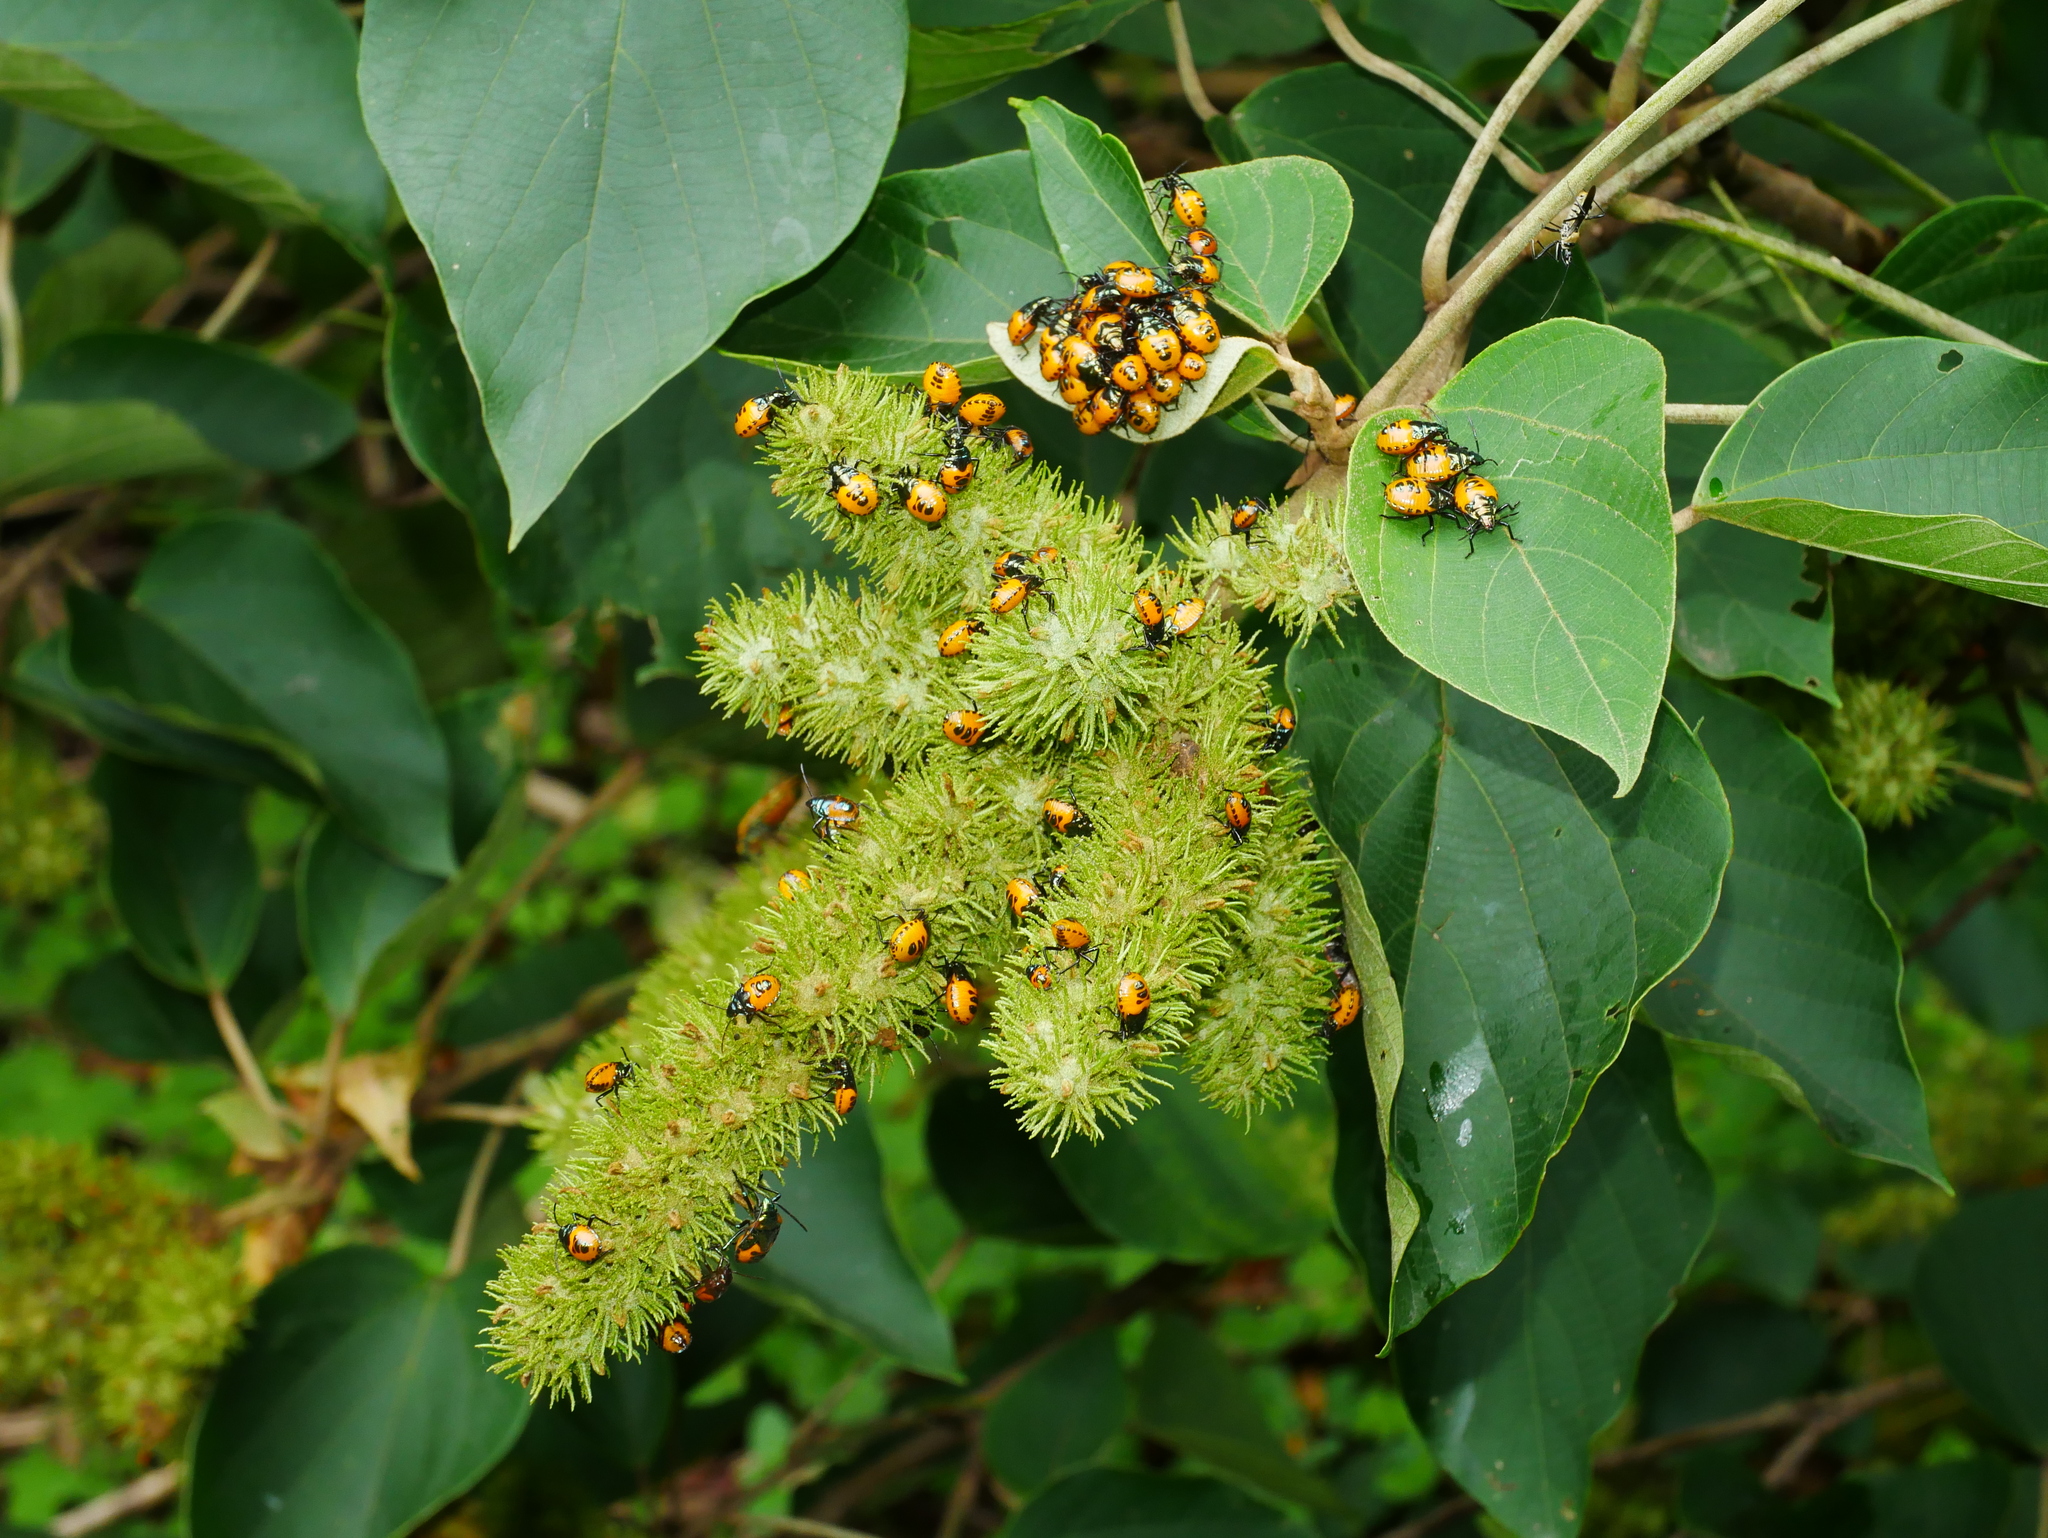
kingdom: Animalia
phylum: Arthropoda
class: Insecta
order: Hemiptera
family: Scutelleridae
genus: Cantao
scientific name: Cantao ocellatus
